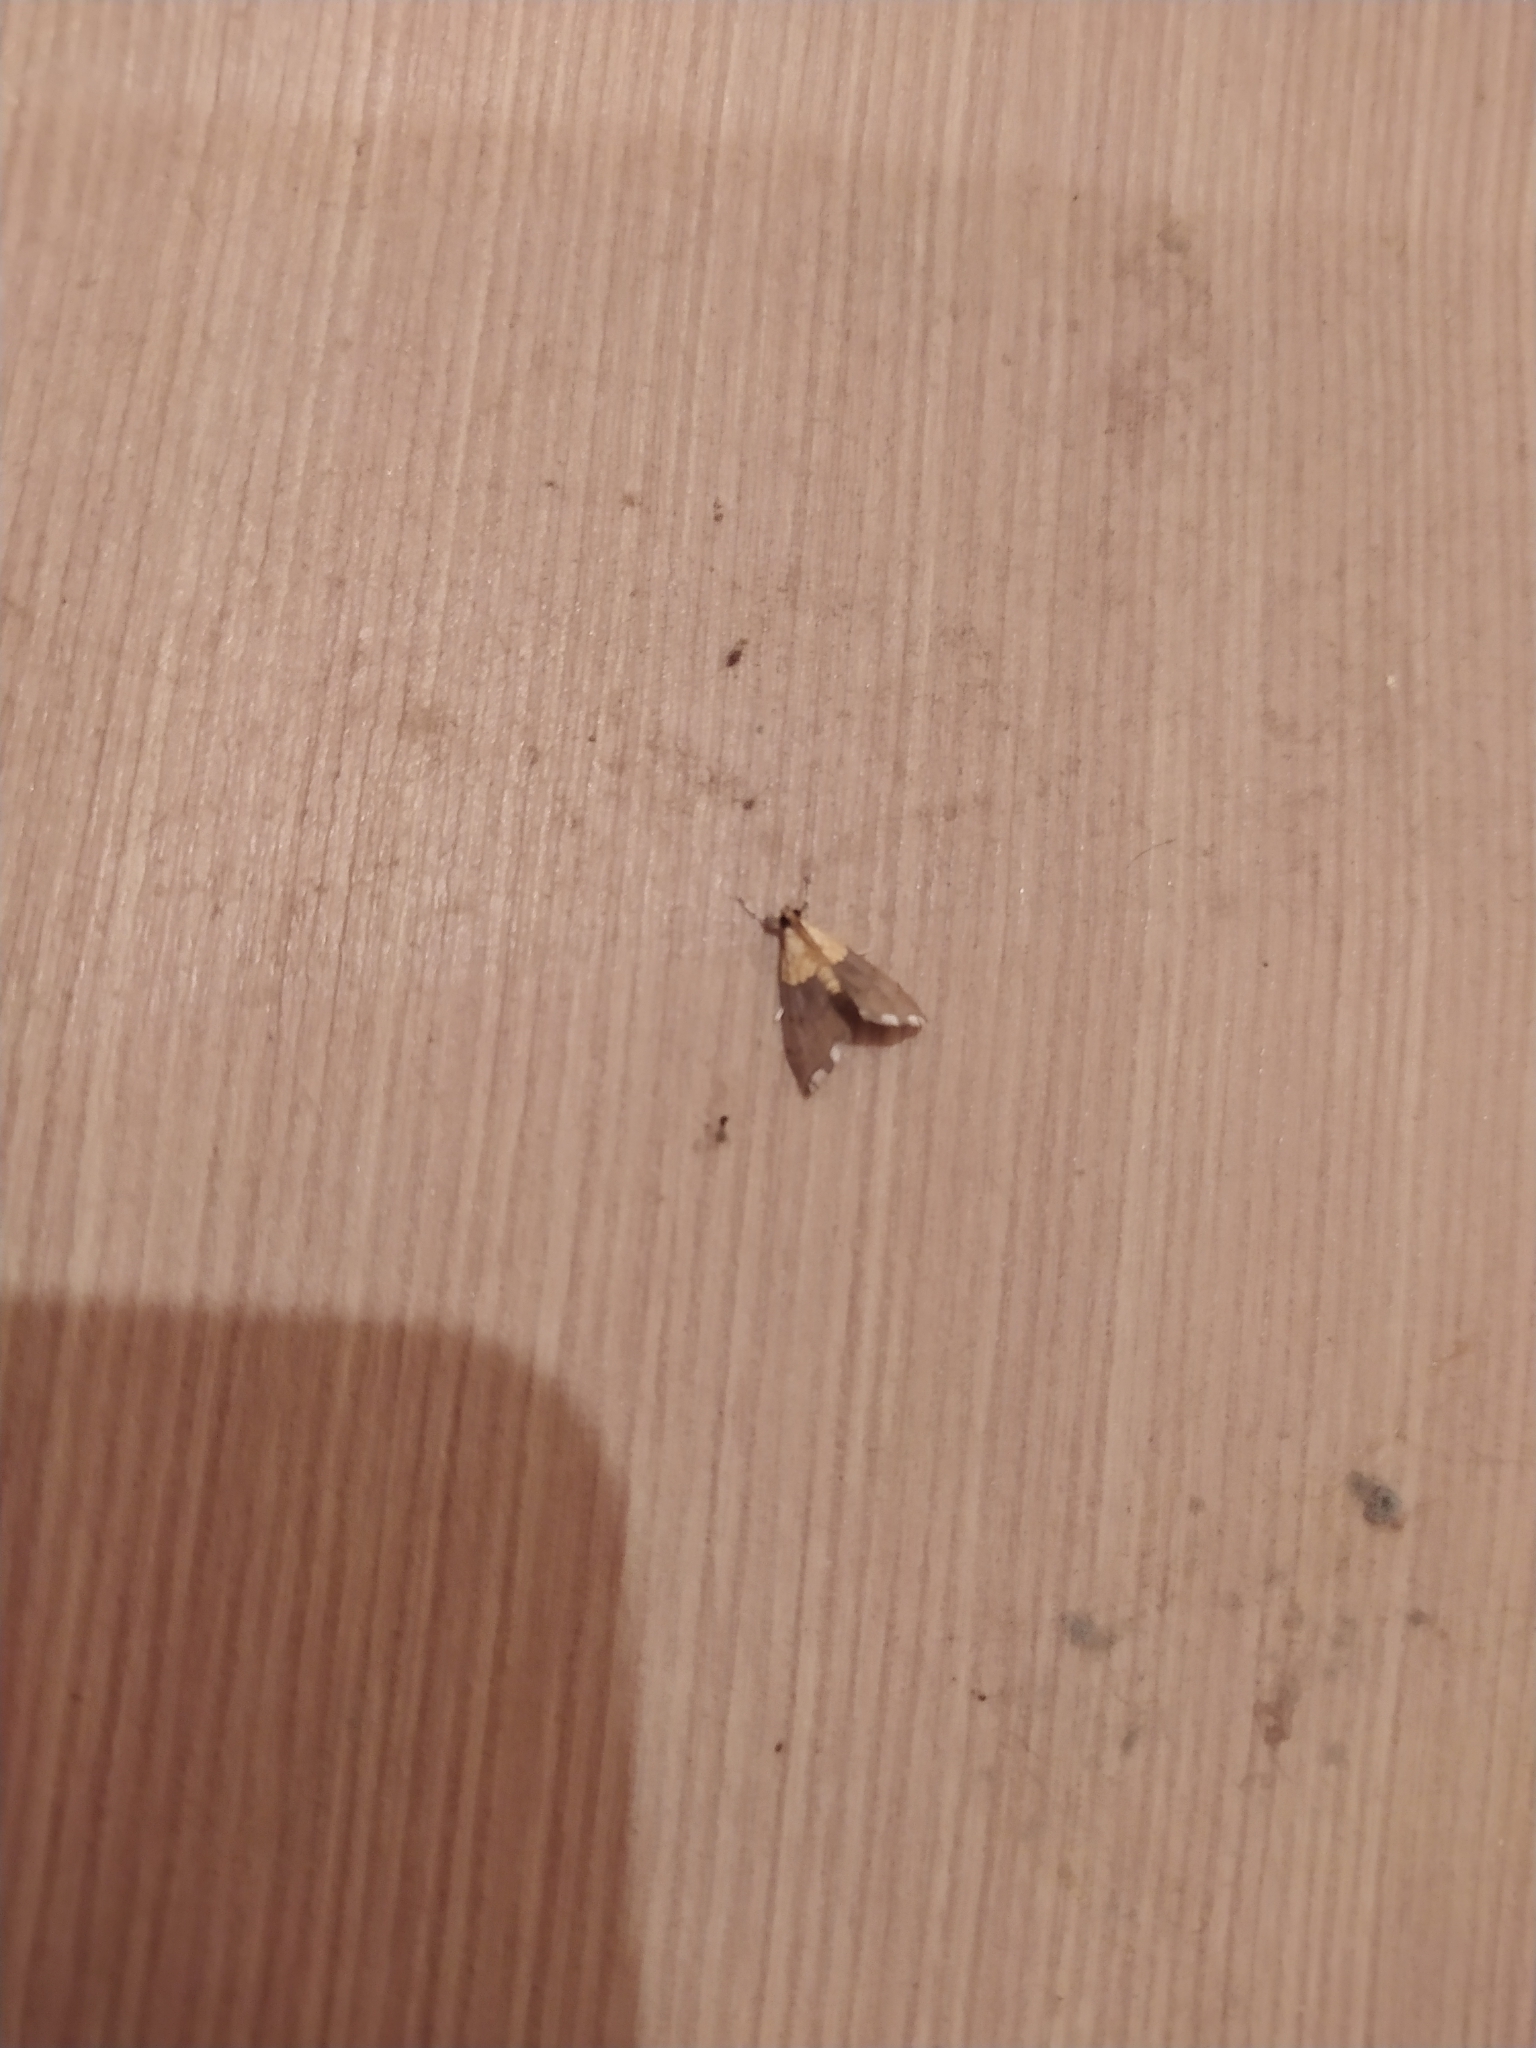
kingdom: Animalia
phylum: Arthropoda
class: Insecta
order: Lepidoptera
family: Crambidae
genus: Agrotera
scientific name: Agrotera nemoralis
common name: Beautiful pearl
